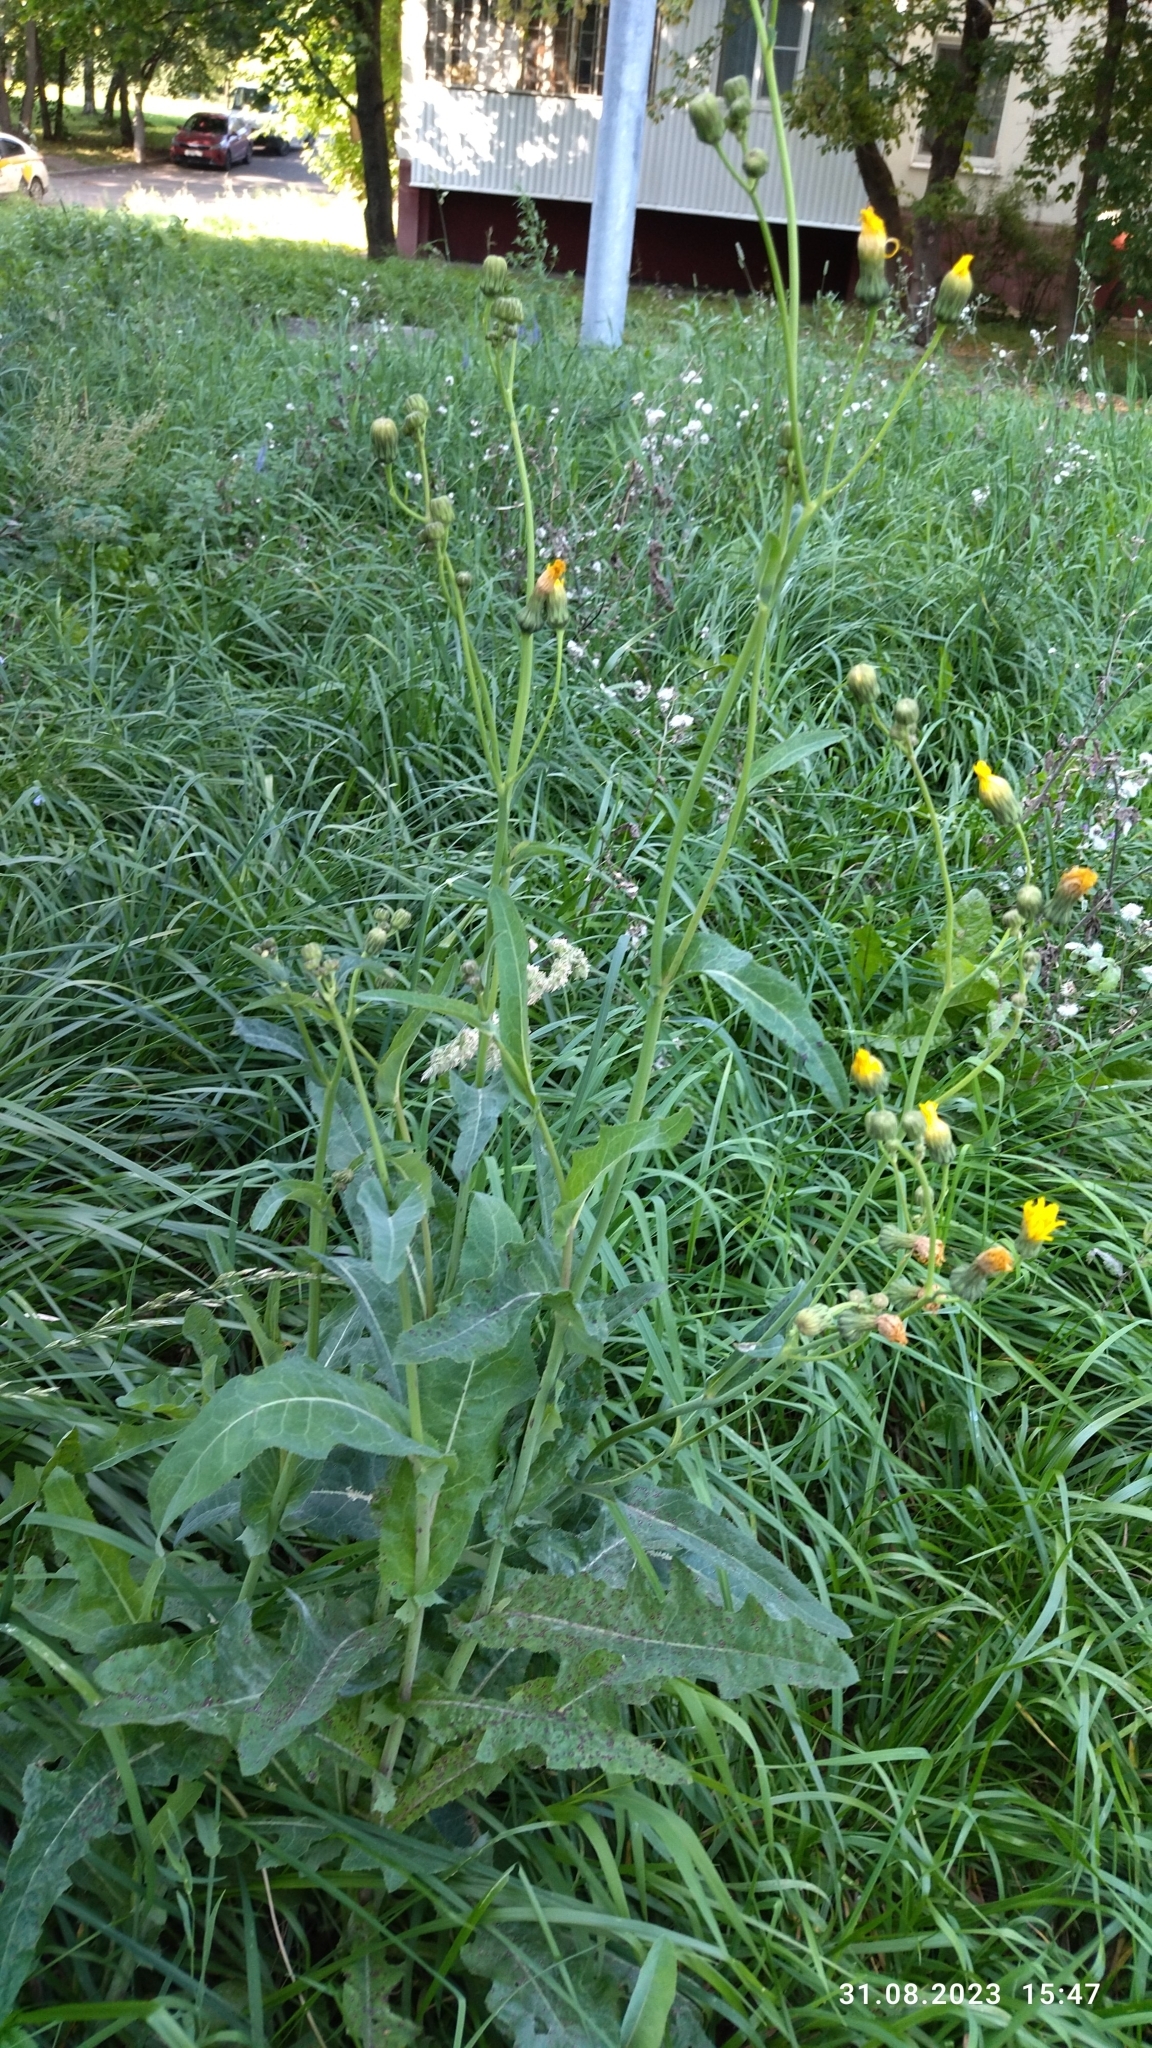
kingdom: Plantae
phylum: Tracheophyta
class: Magnoliopsida
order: Asterales
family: Asteraceae
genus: Sonchus
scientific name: Sonchus arvensis
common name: Perennial sow-thistle
